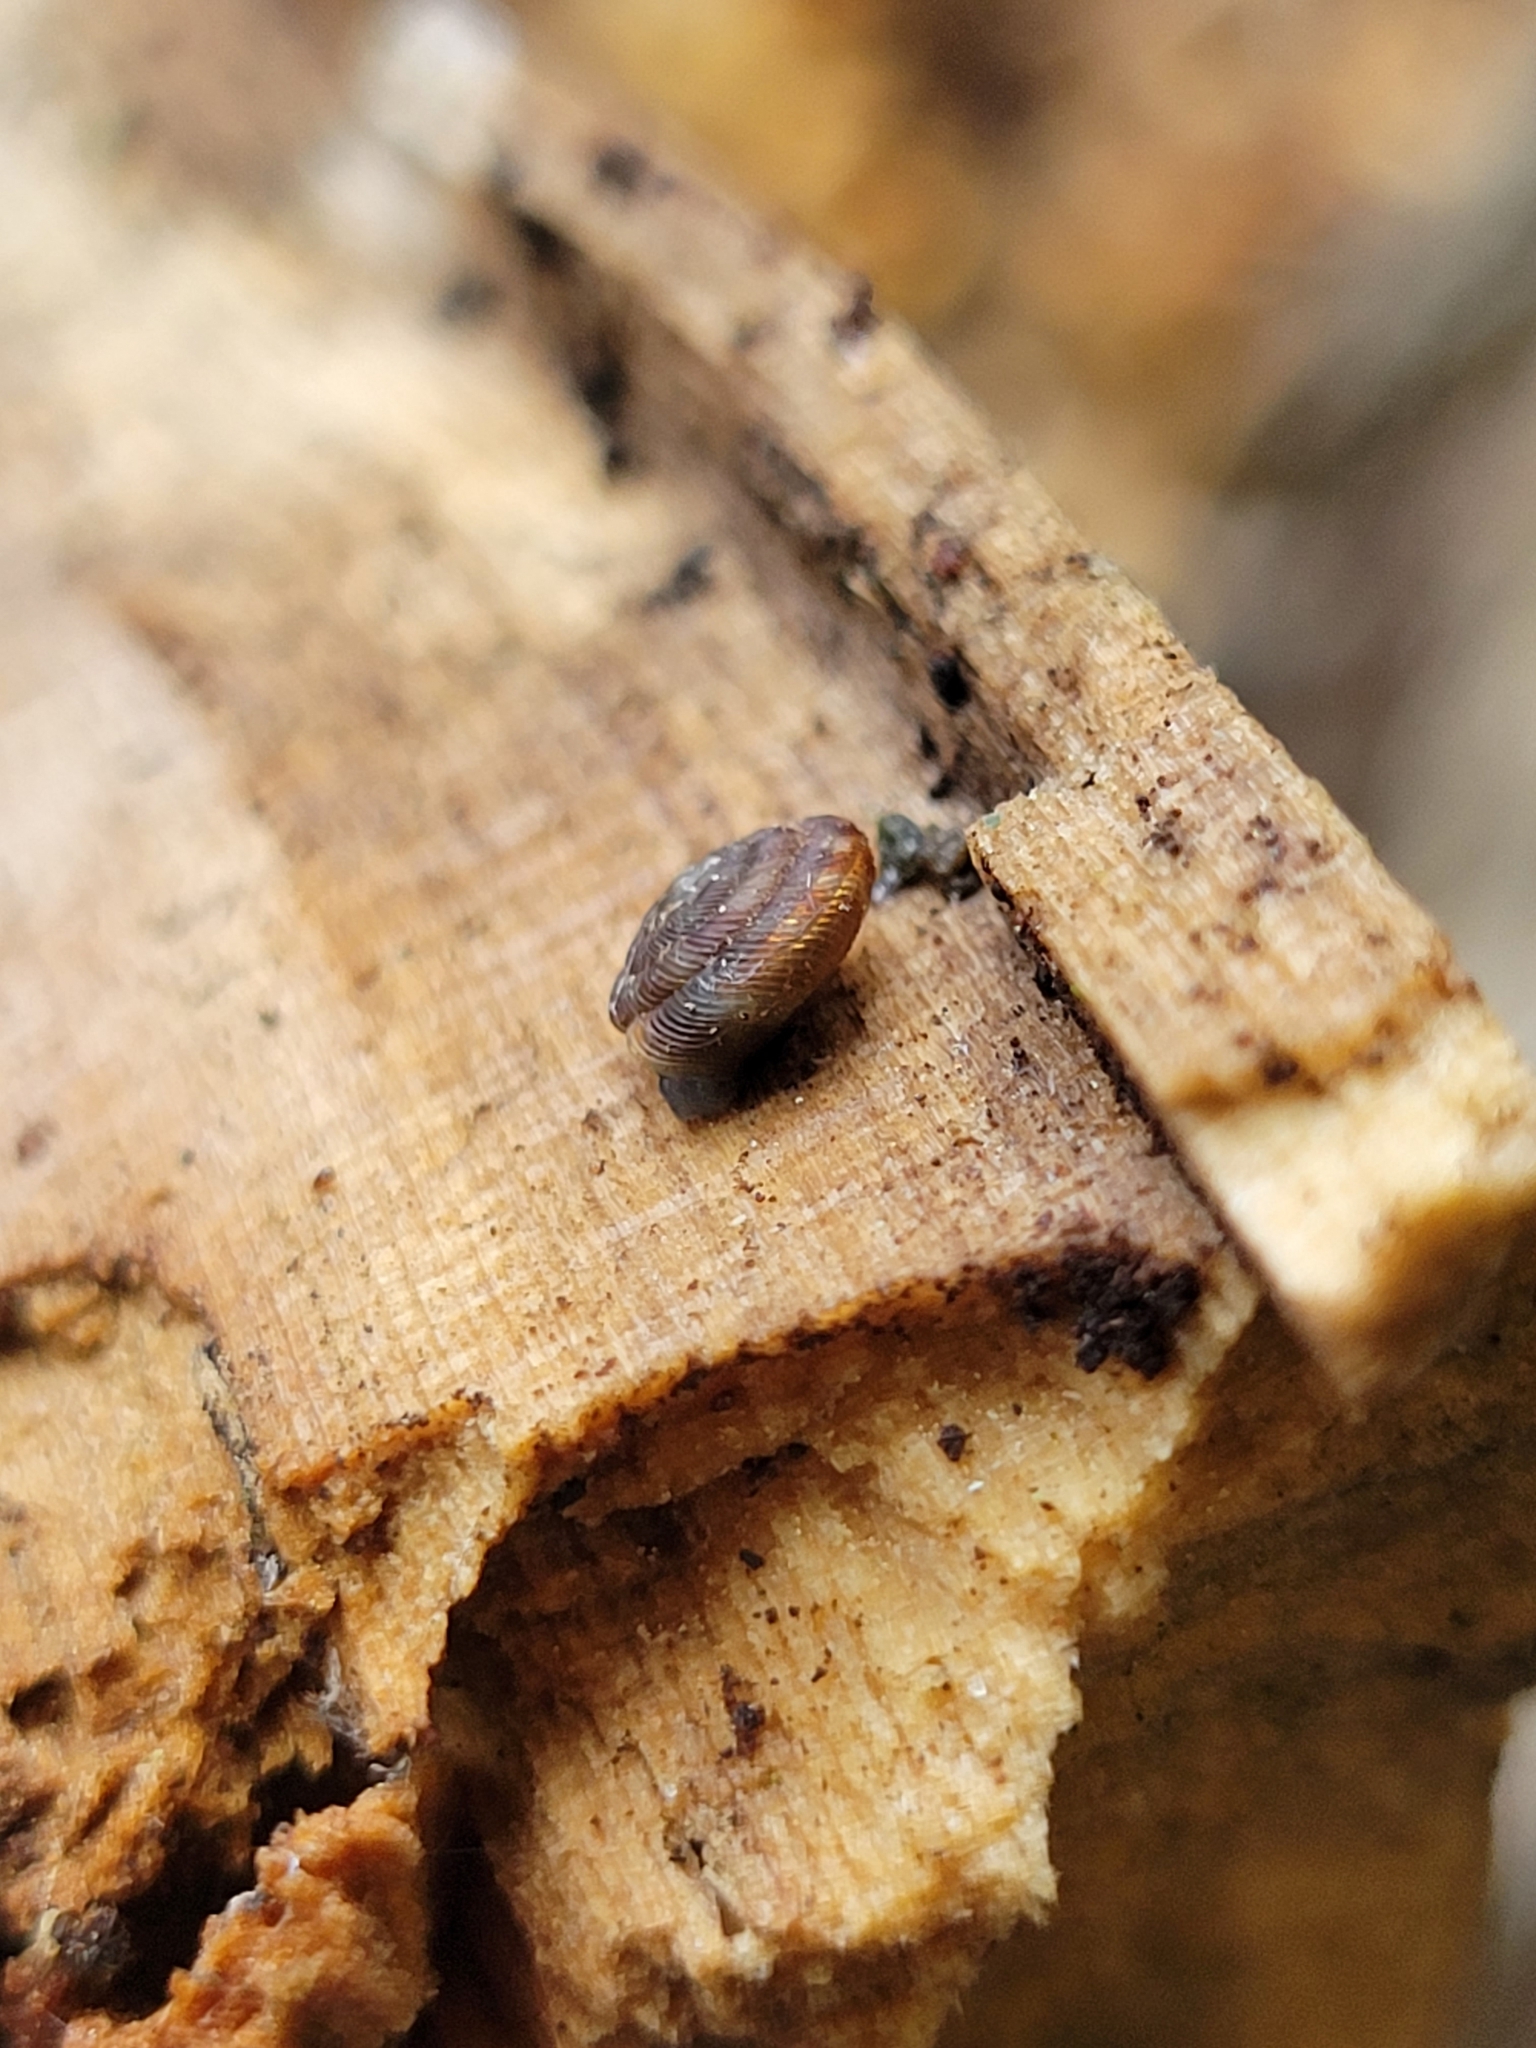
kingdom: Animalia
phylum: Mollusca
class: Gastropoda
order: Stylommatophora
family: Discidae
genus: Discus
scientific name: Discus rotundatus
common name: Rounded snail
